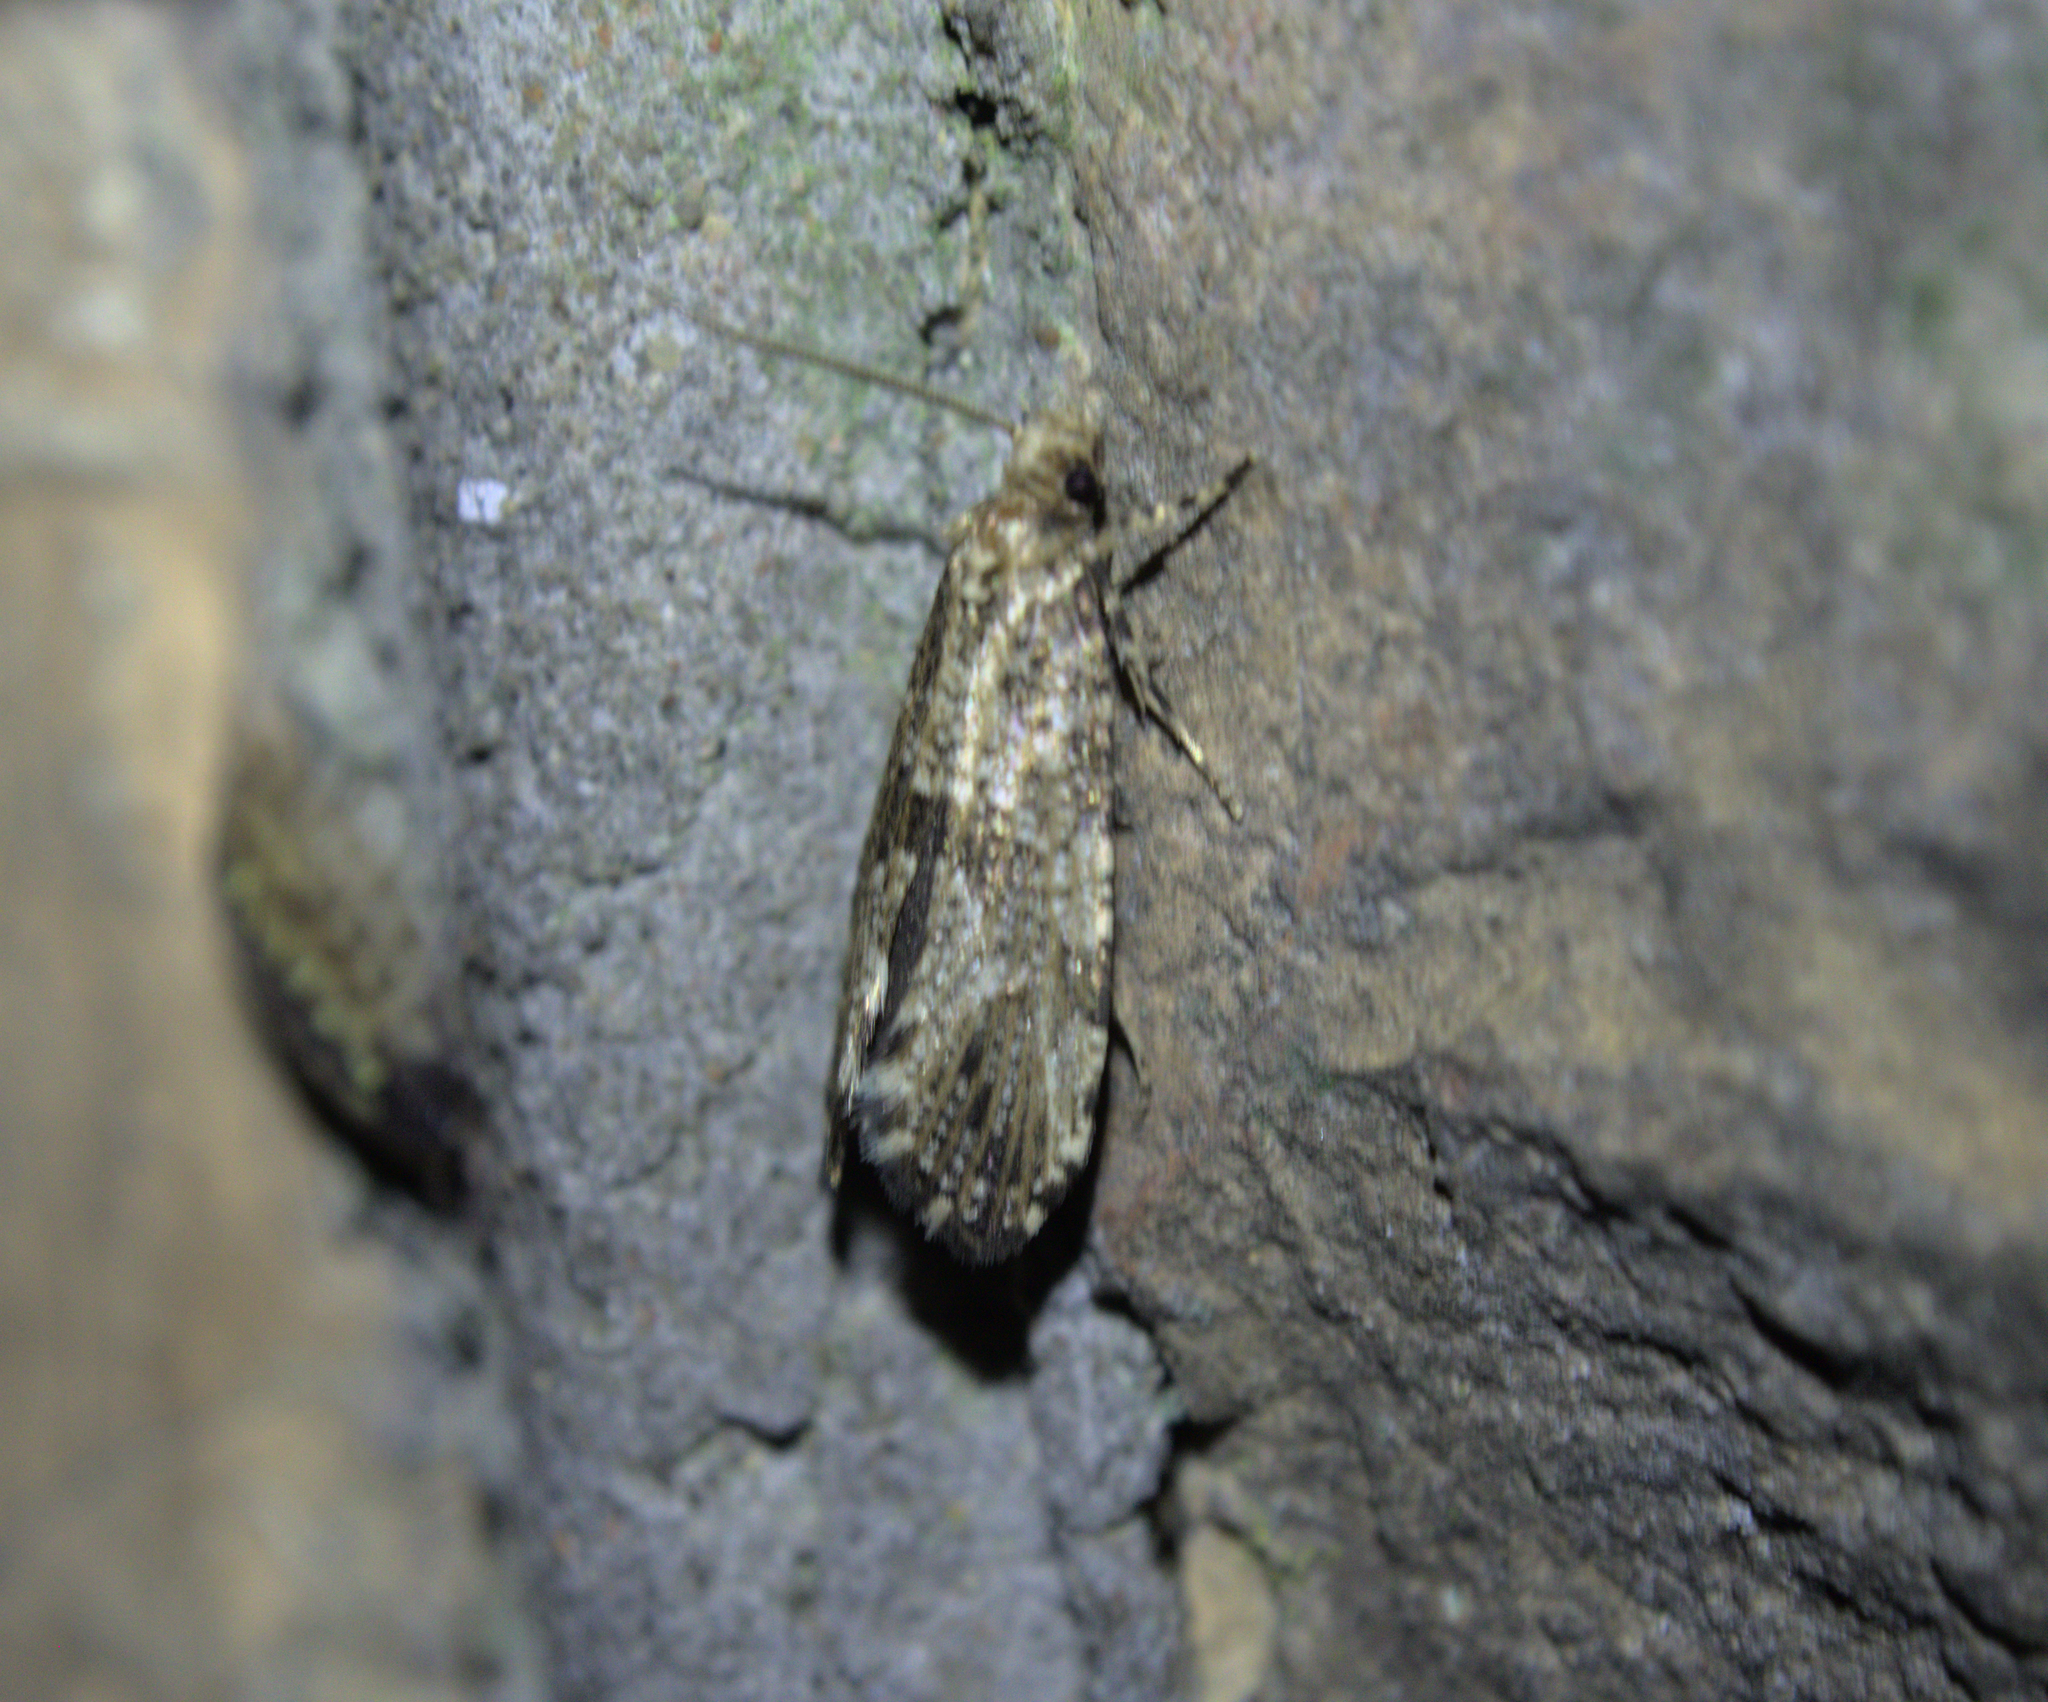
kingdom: Animalia
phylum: Arthropoda
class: Insecta
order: Lepidoptera
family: Tineidae
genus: Morophaga
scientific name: Morophaga choragella
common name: Large clothes
